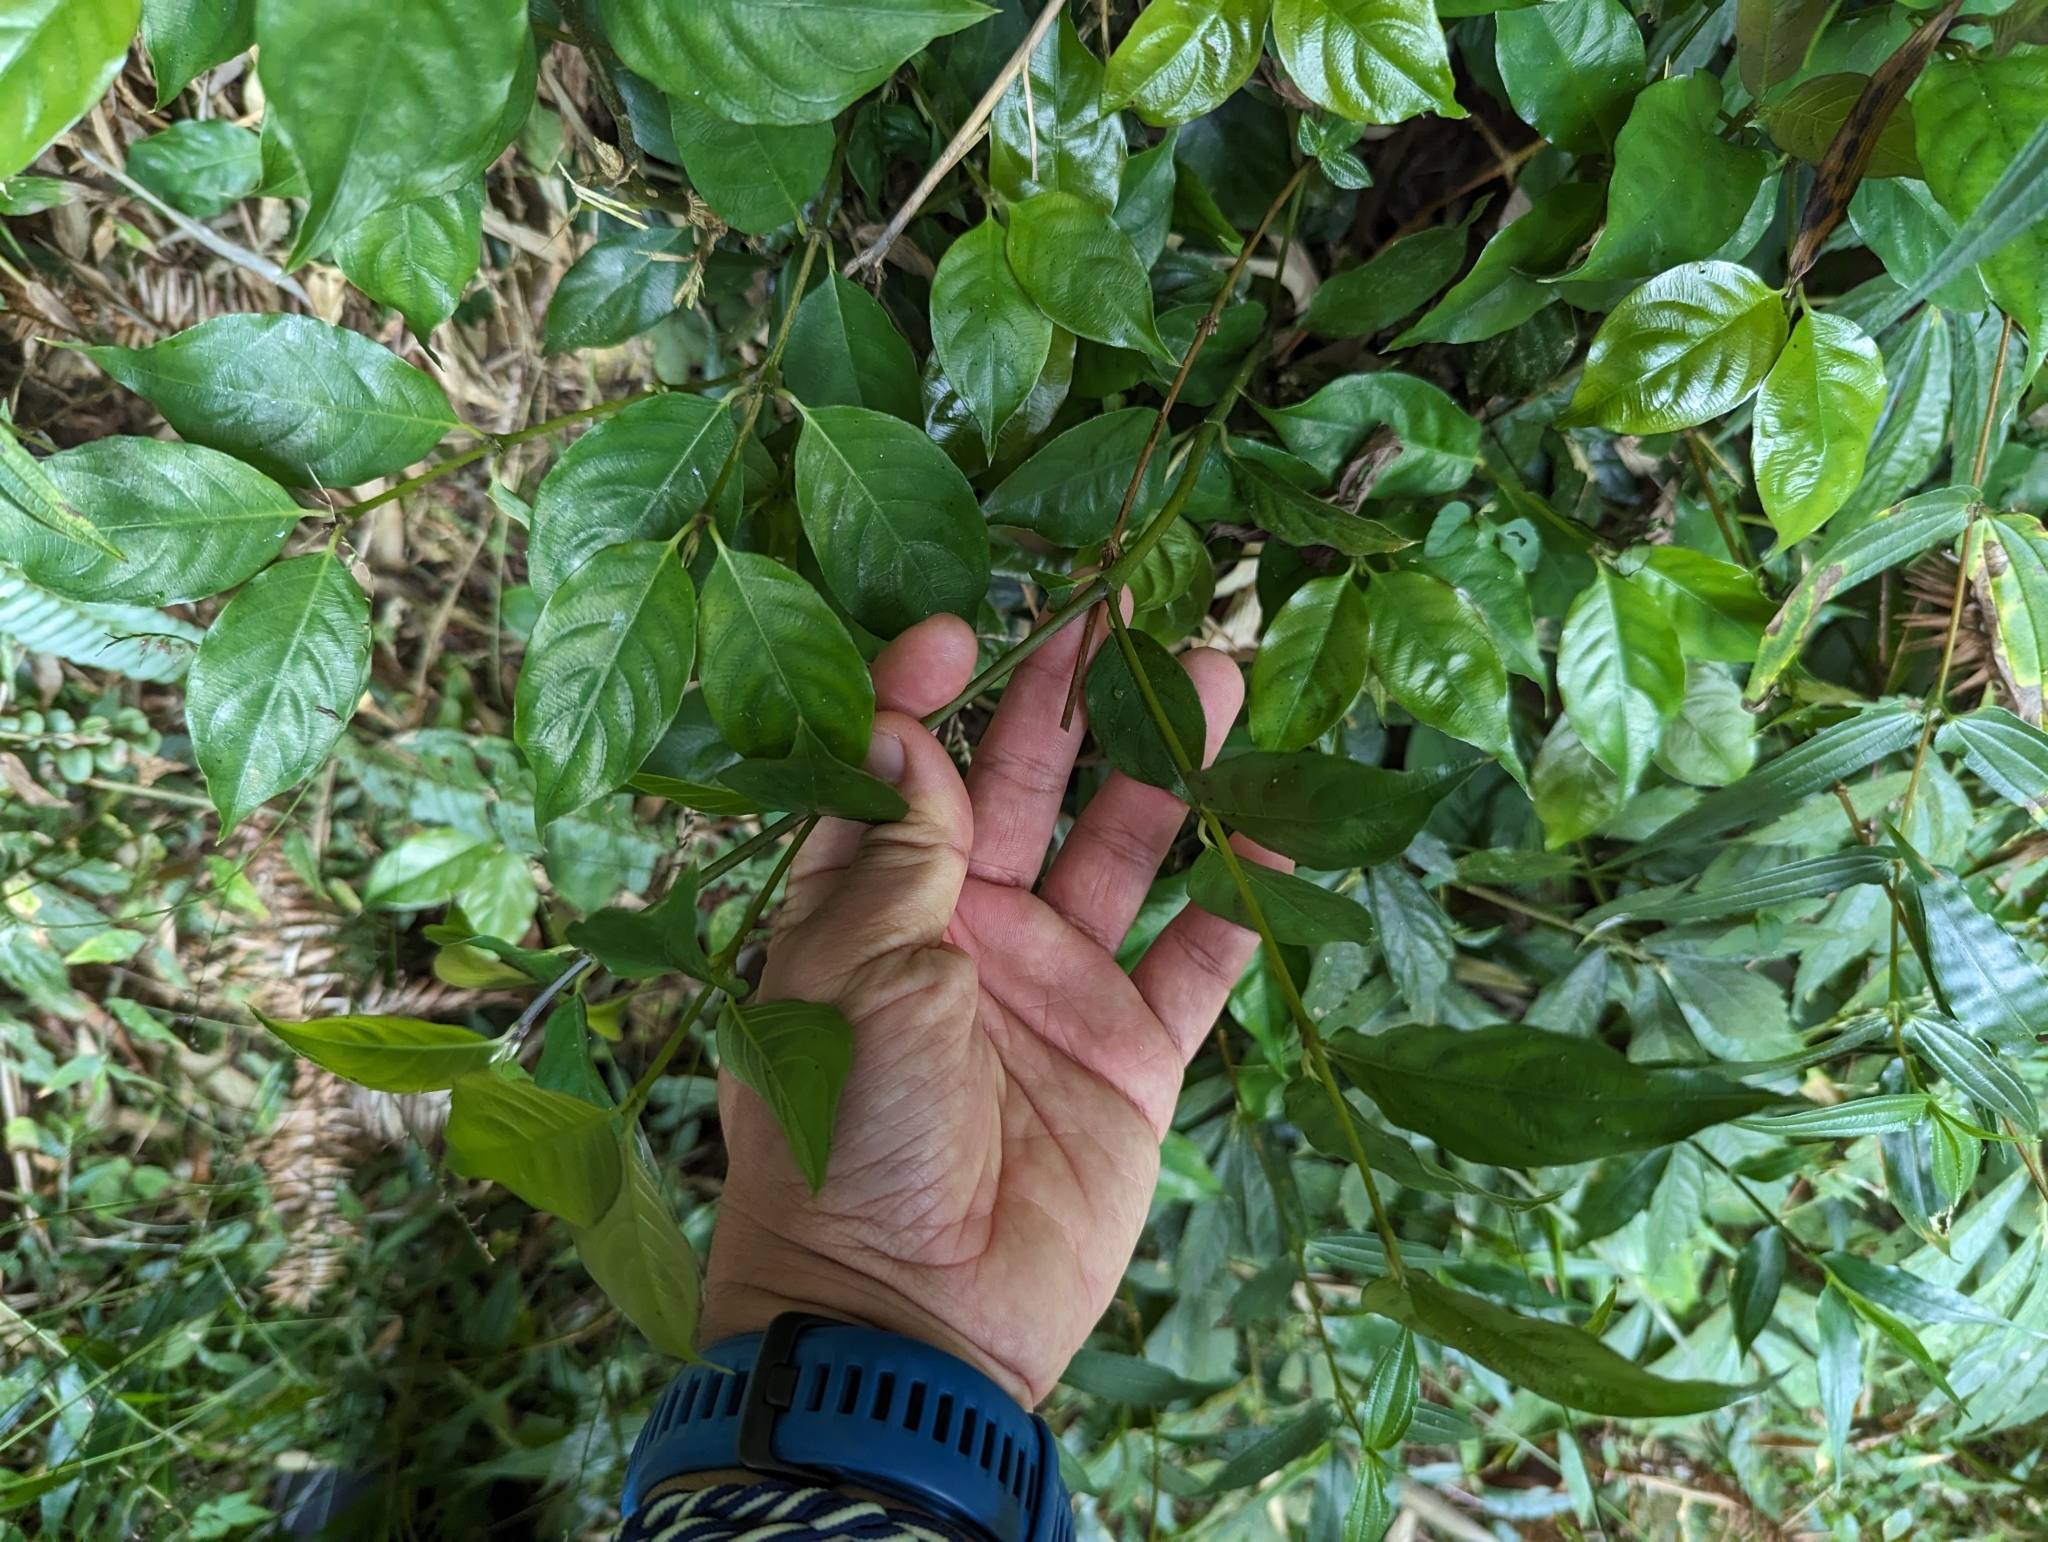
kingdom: Plantae
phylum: Tracheophyta
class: Magnoliopsida
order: Gentianales
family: Rubiaceae
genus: Lasianthus
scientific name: Lasianthus fordii
